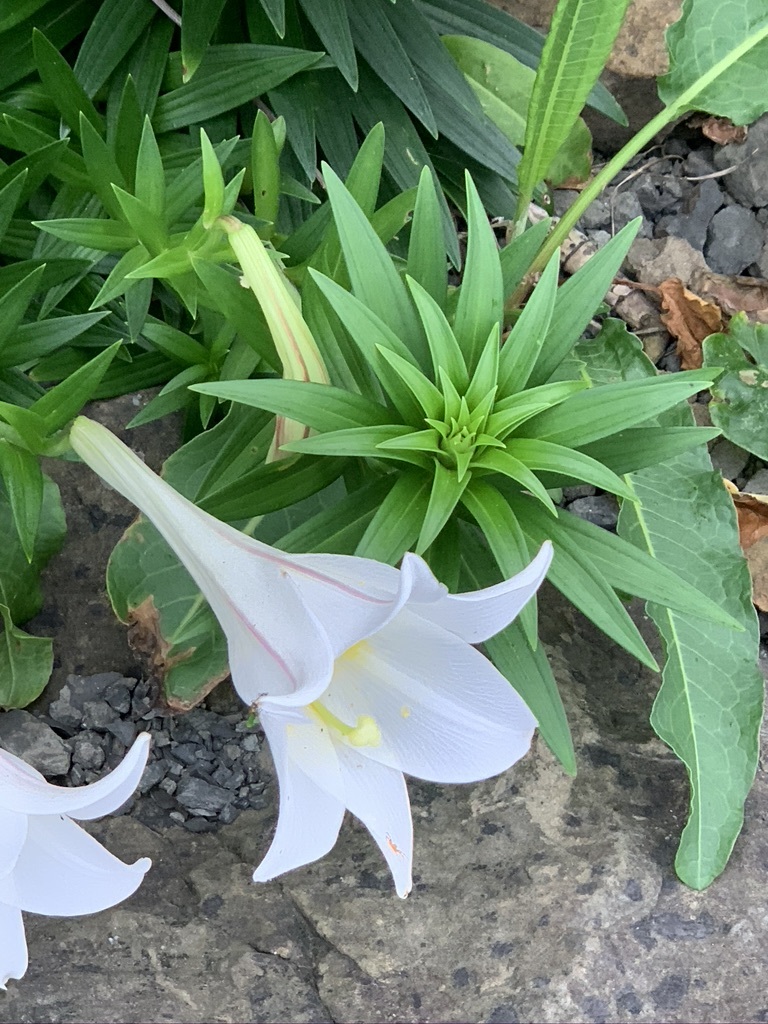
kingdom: Plantae
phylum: Tracheophyta
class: Liliopsida
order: Liliales
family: Liliaceae
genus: Lilium
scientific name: Lilium longiflorum
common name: Easter lily
